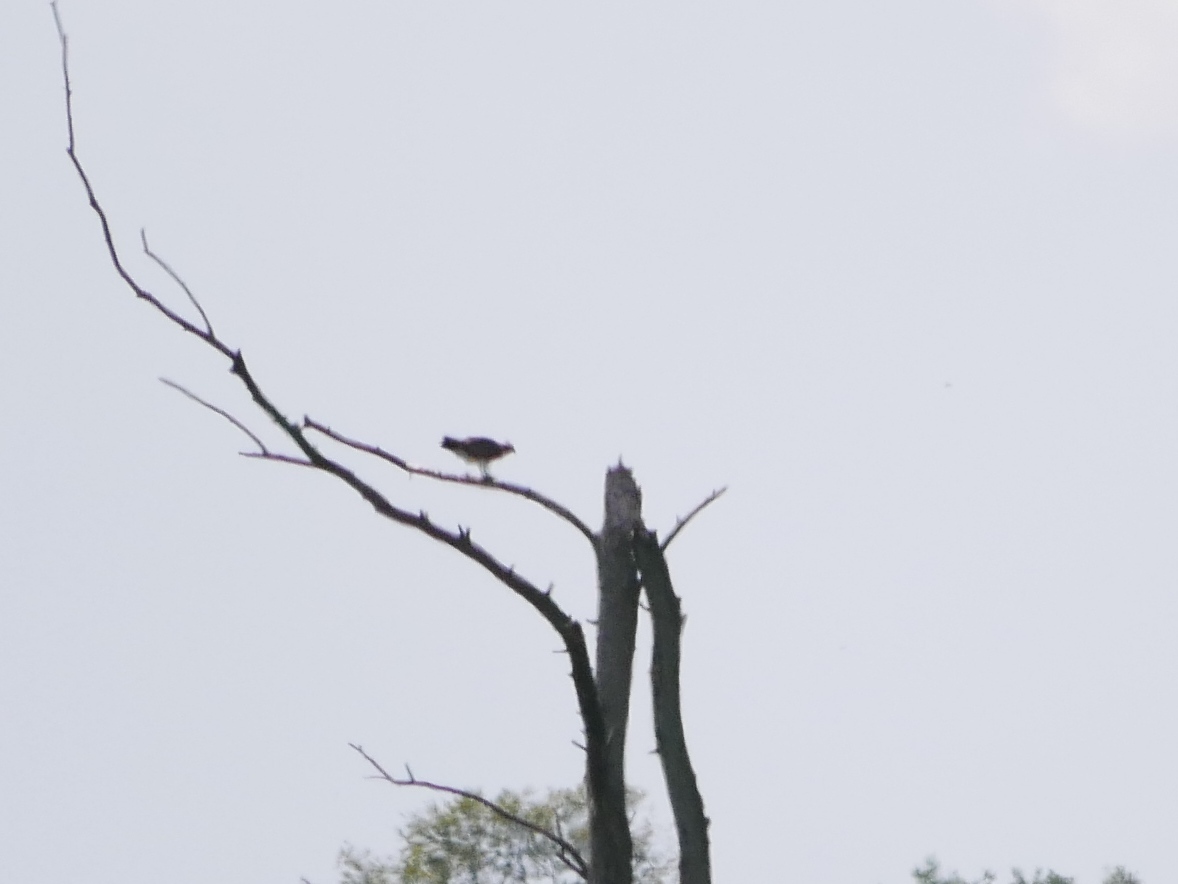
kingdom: Animalia
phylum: Chordata
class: Aves
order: Accipitriformes
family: Pandionidae
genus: Pandion
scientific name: Pandion haliaetus
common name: Osprey
